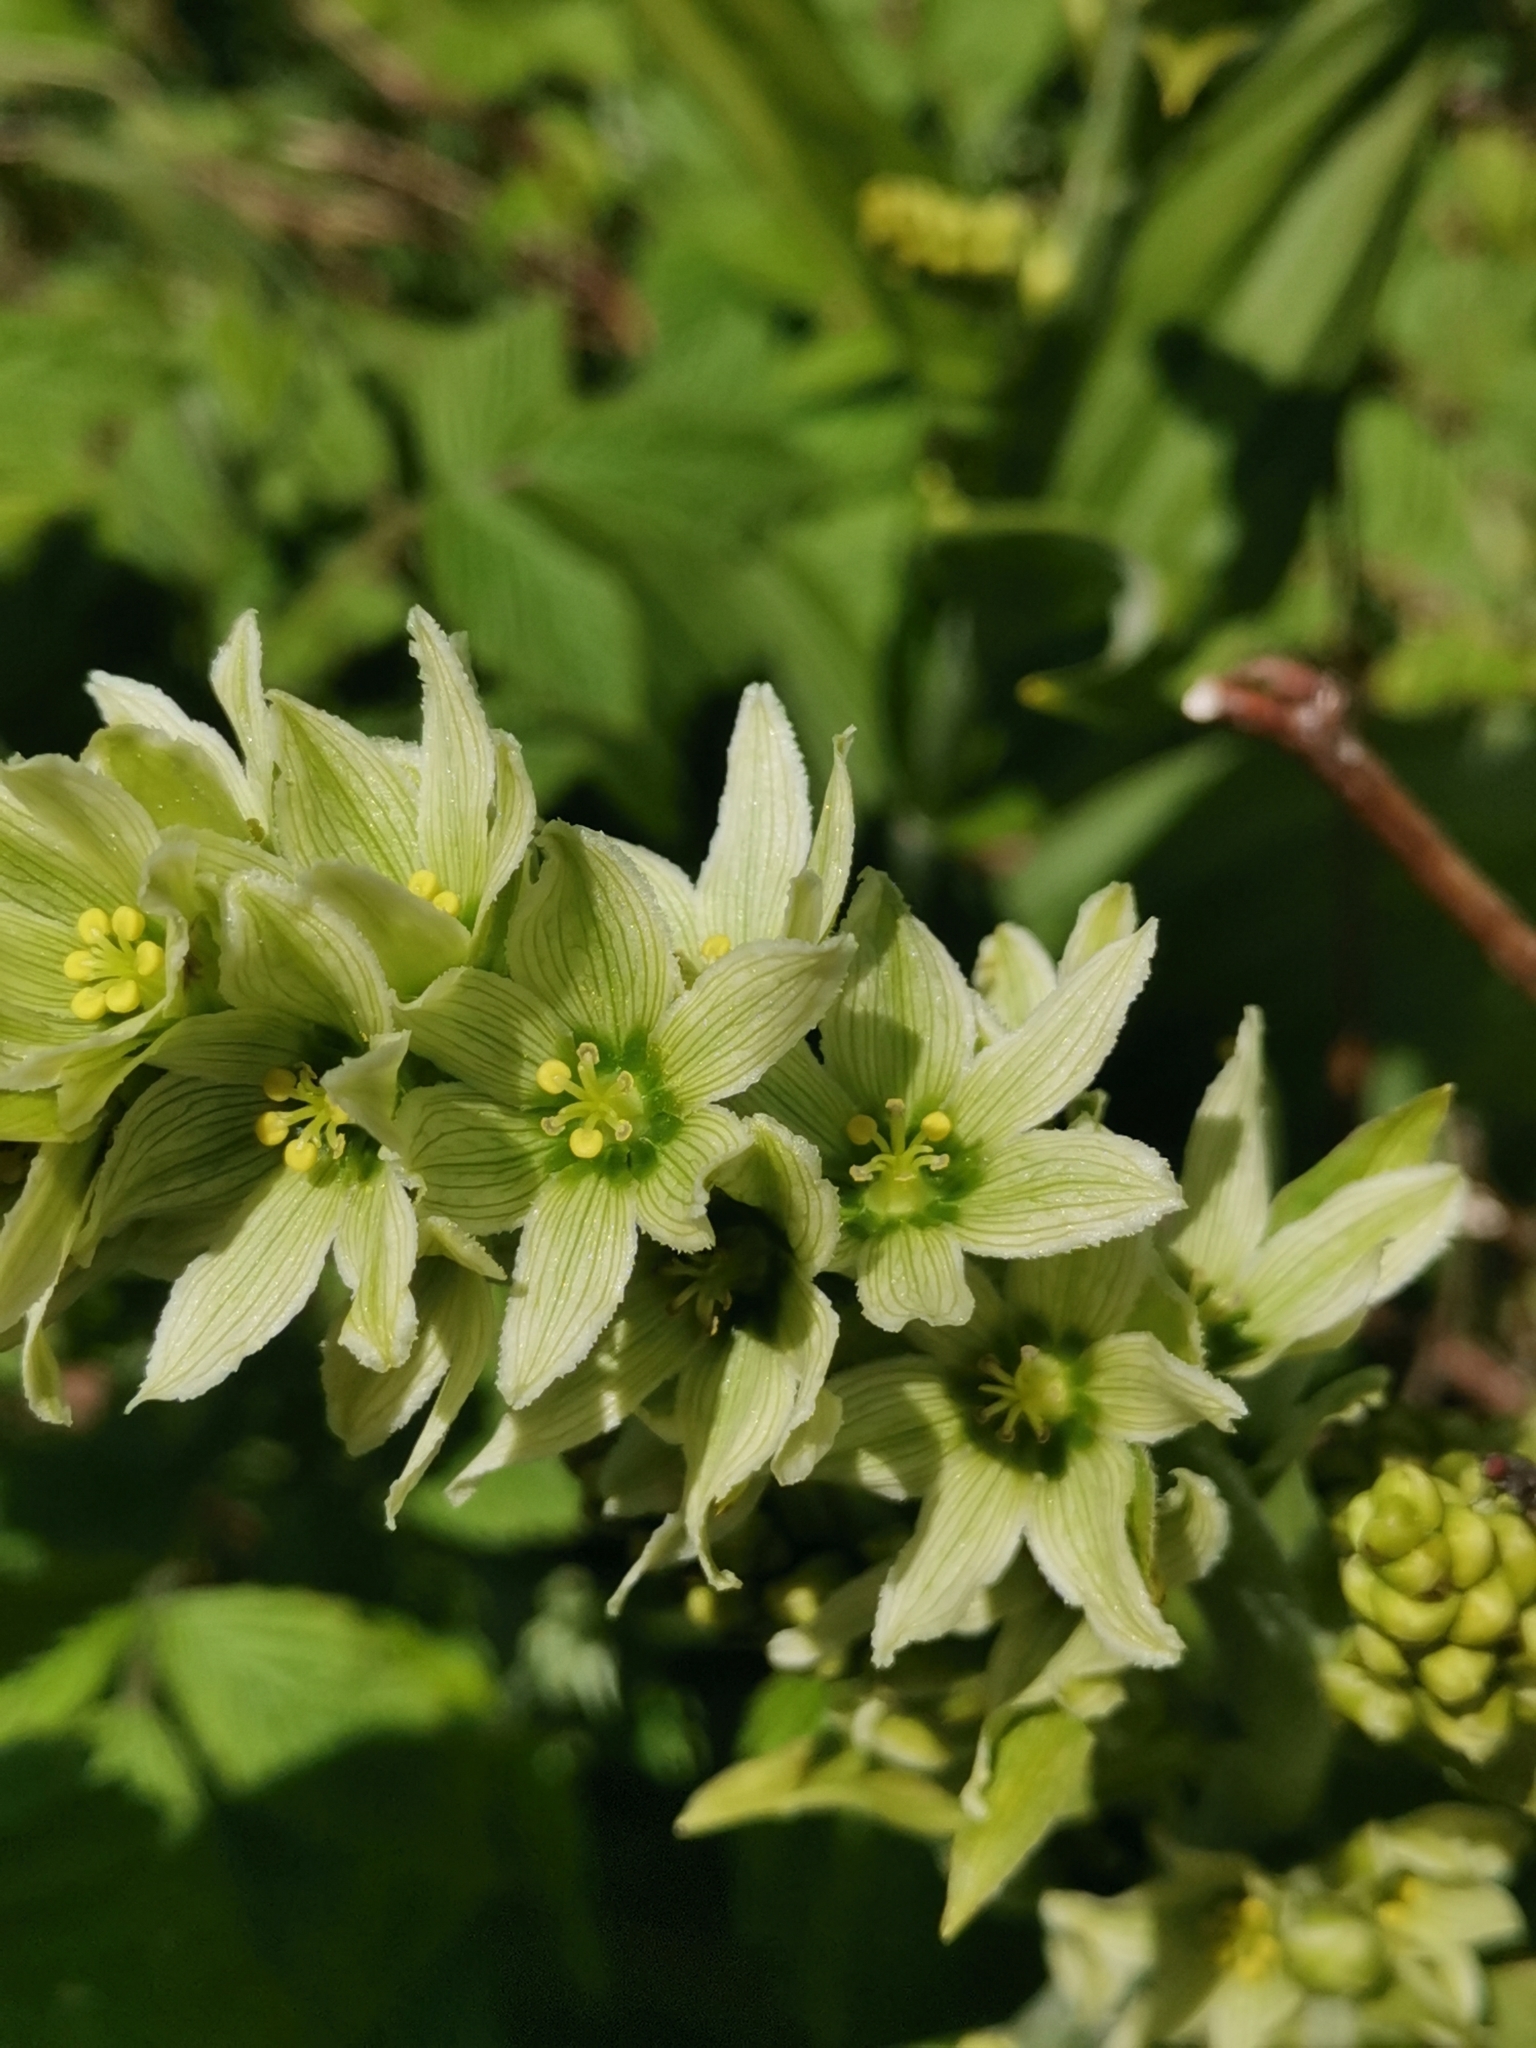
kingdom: Plantae
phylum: Tracheophyta
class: Liliopsida
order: Liliales
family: Melanthiaceae
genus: Veratrum
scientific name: Veratrum album
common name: White veratrum
